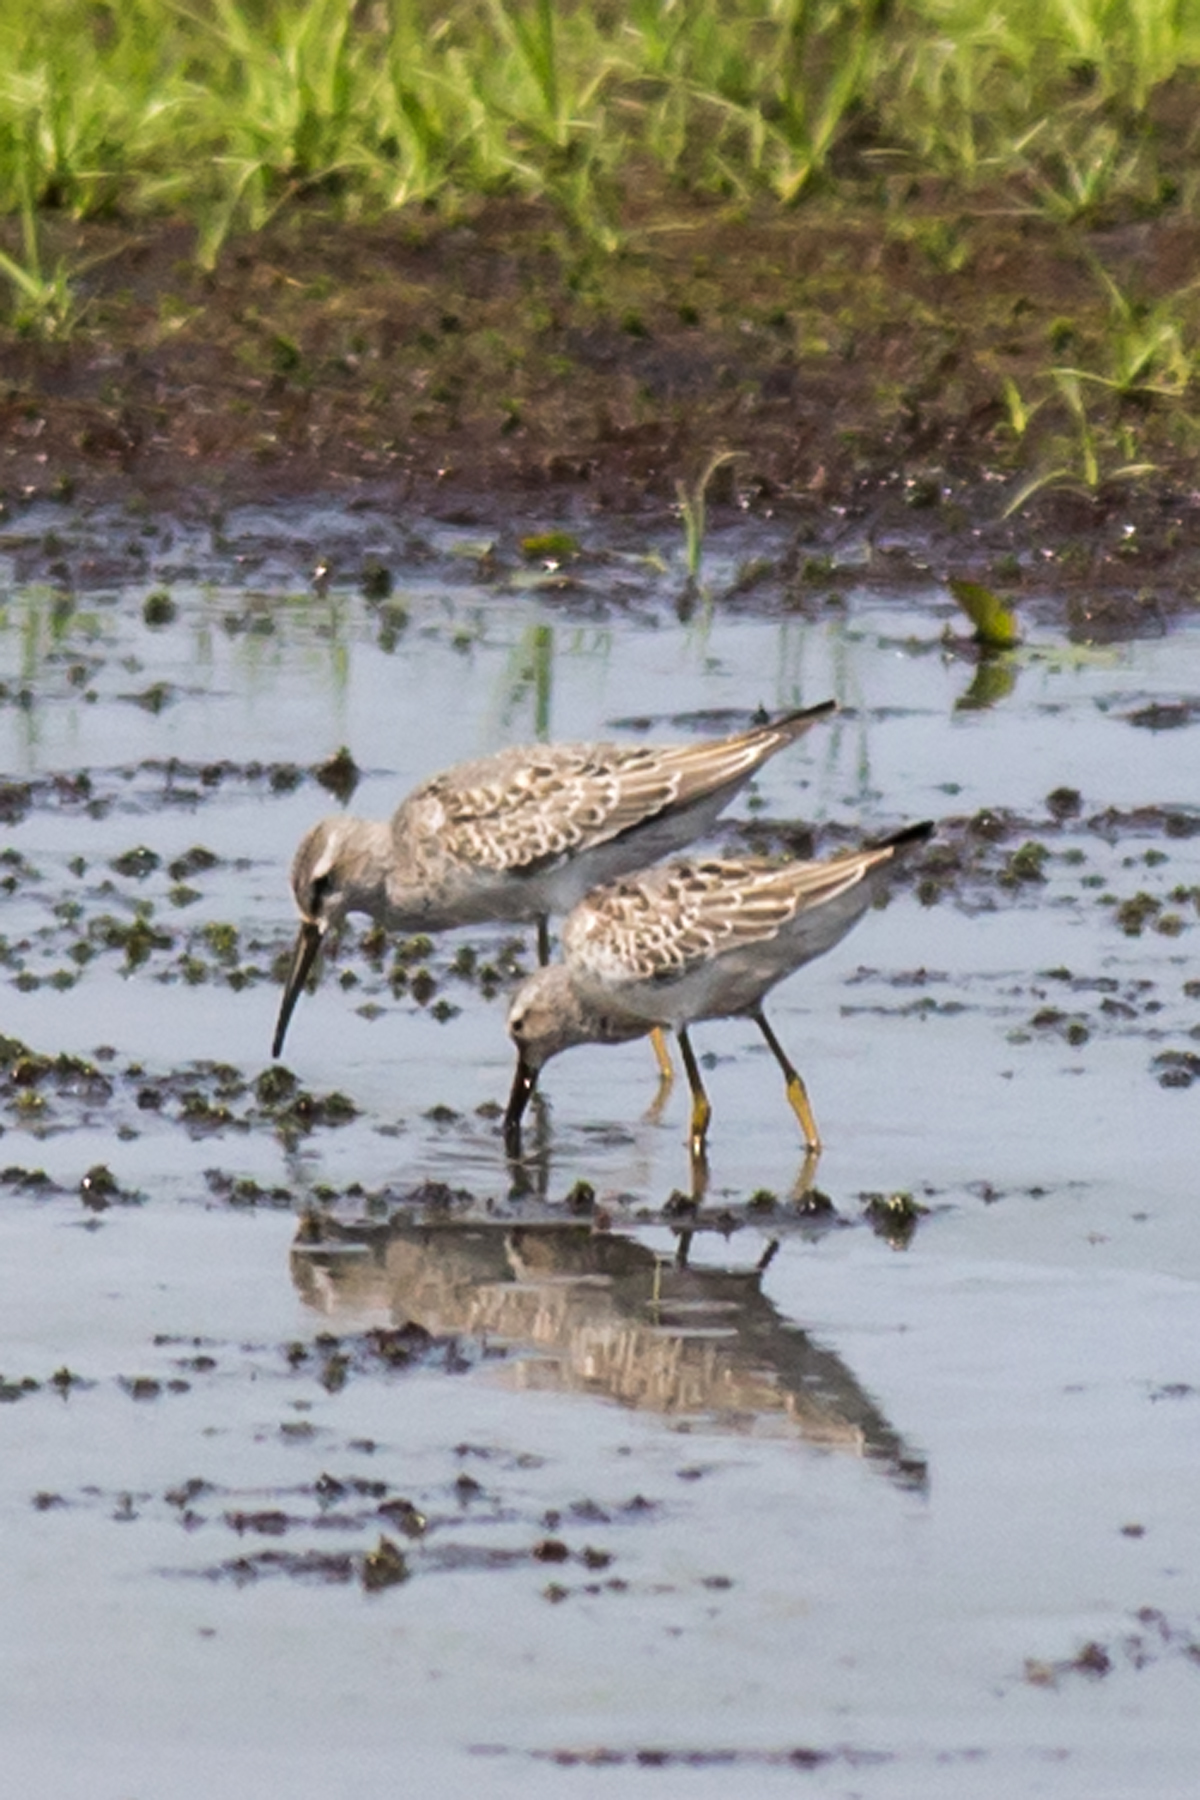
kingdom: Animalia
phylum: Chordata
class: Aves
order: Charadriiformes
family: Scolopacidae
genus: Calidris
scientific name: Calidris himantopus
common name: Stilt sandpiper
